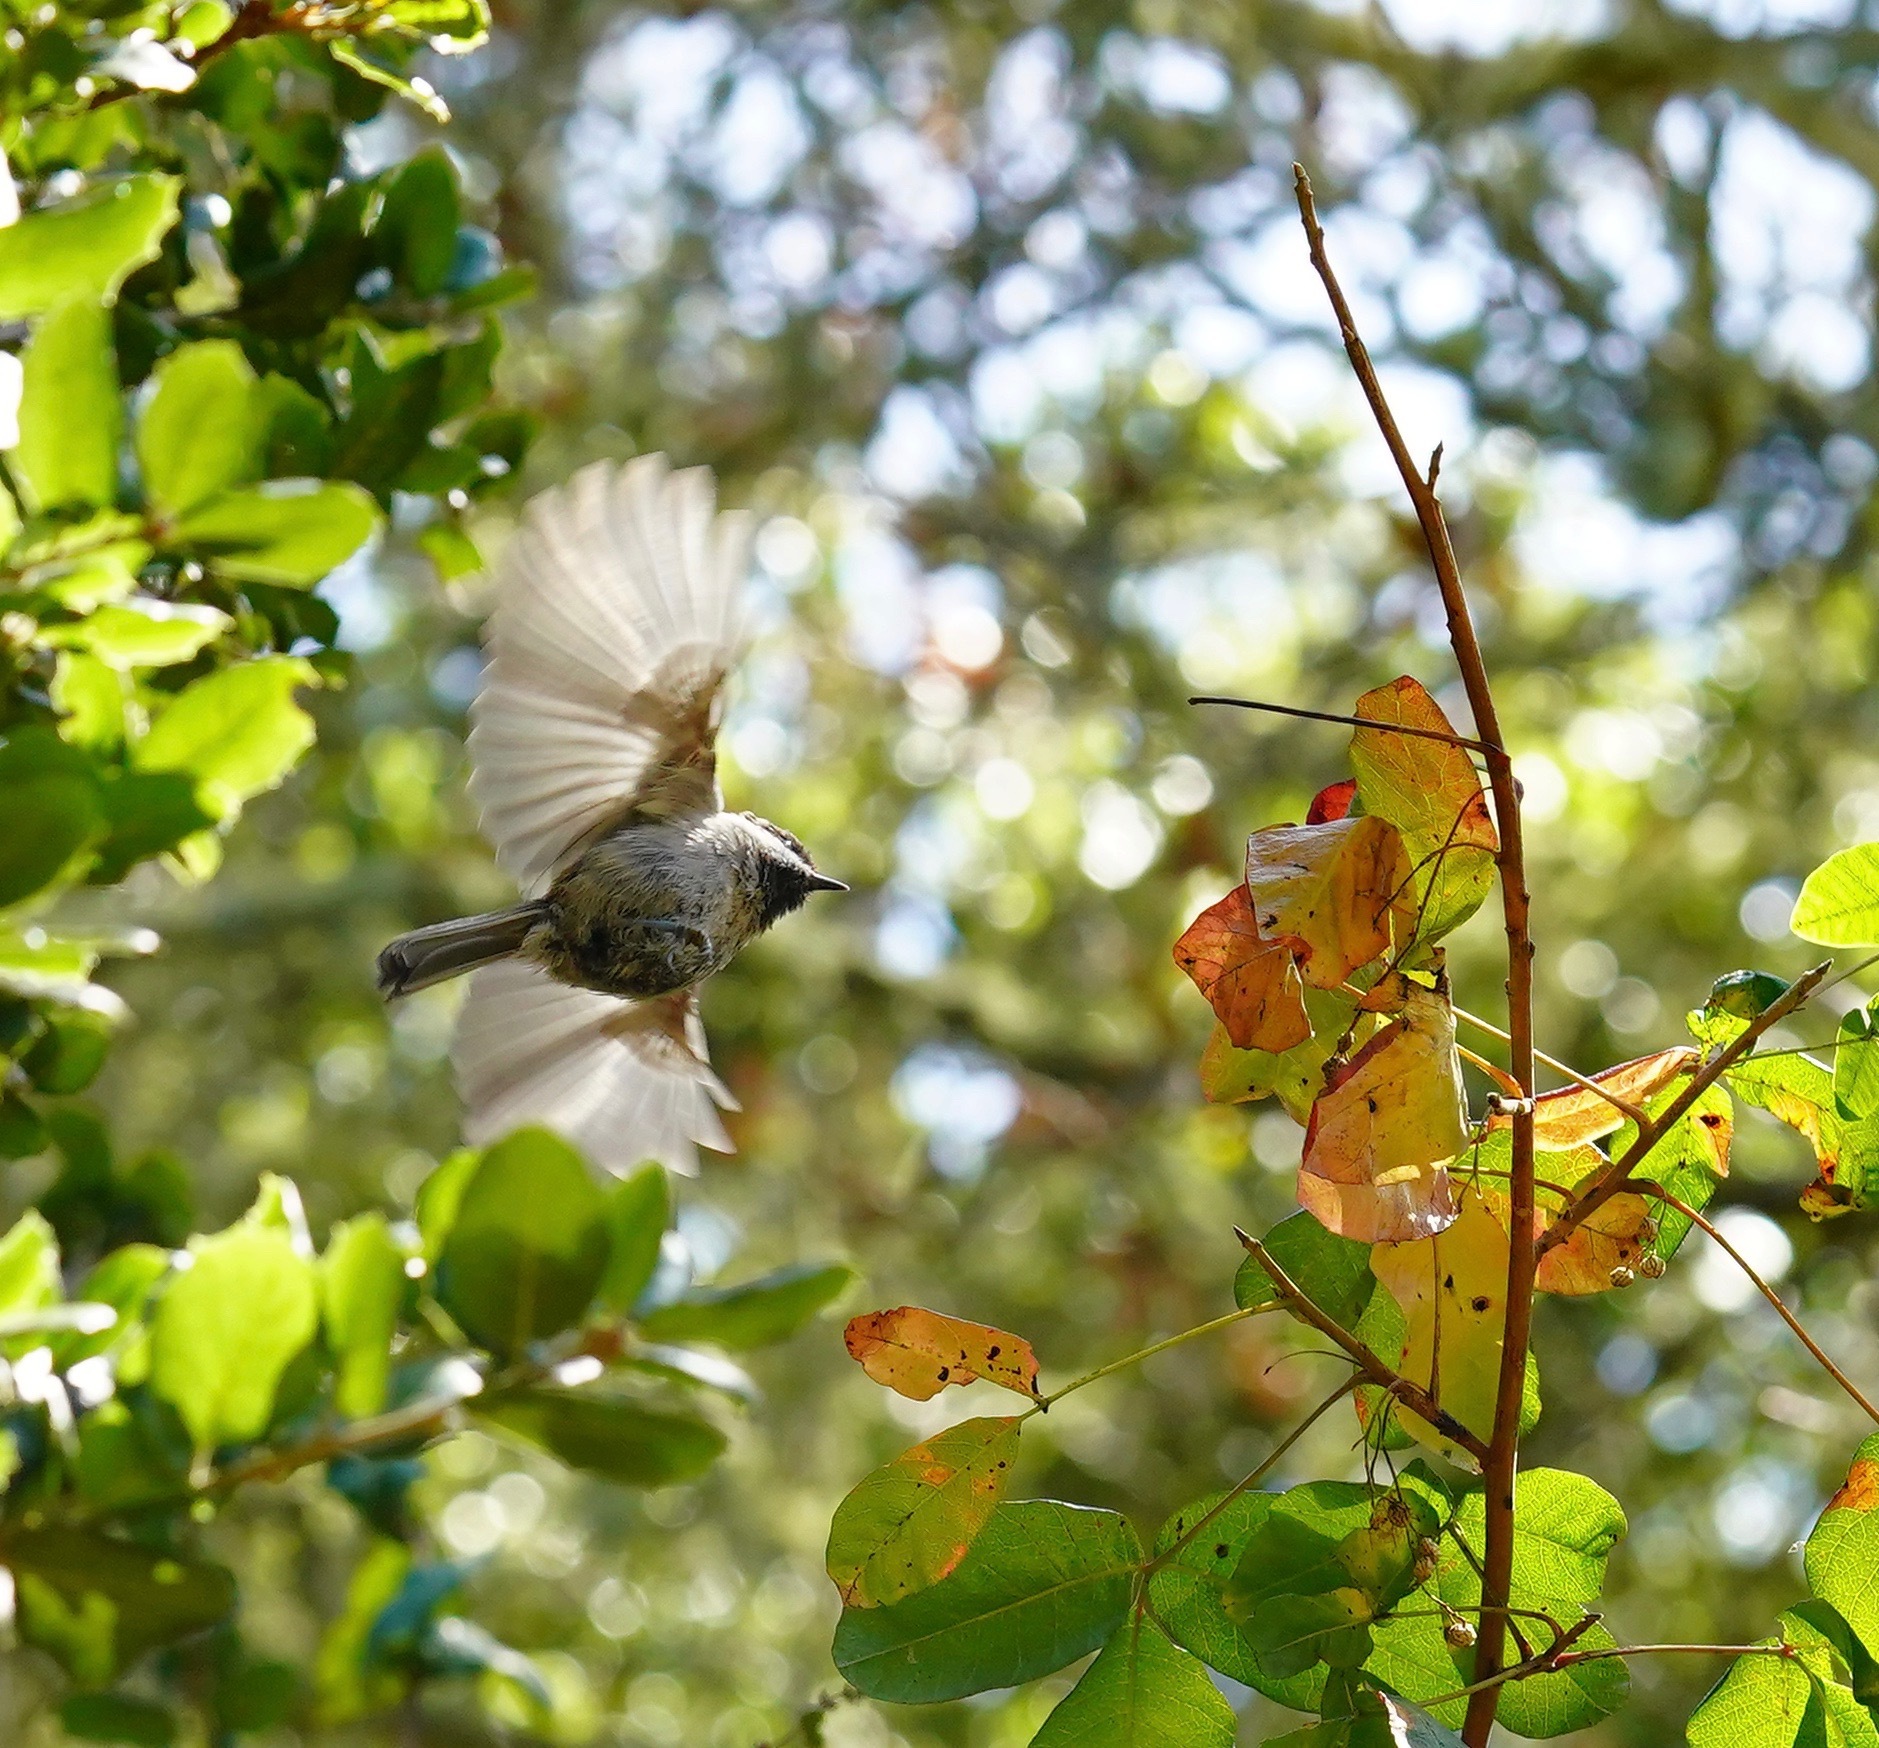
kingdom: Animalia
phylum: Chordata
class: Aves
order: Passeriformes
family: Paridae
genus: Poecile
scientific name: Poecile rufescens
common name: Chestnut-backed chickadee
